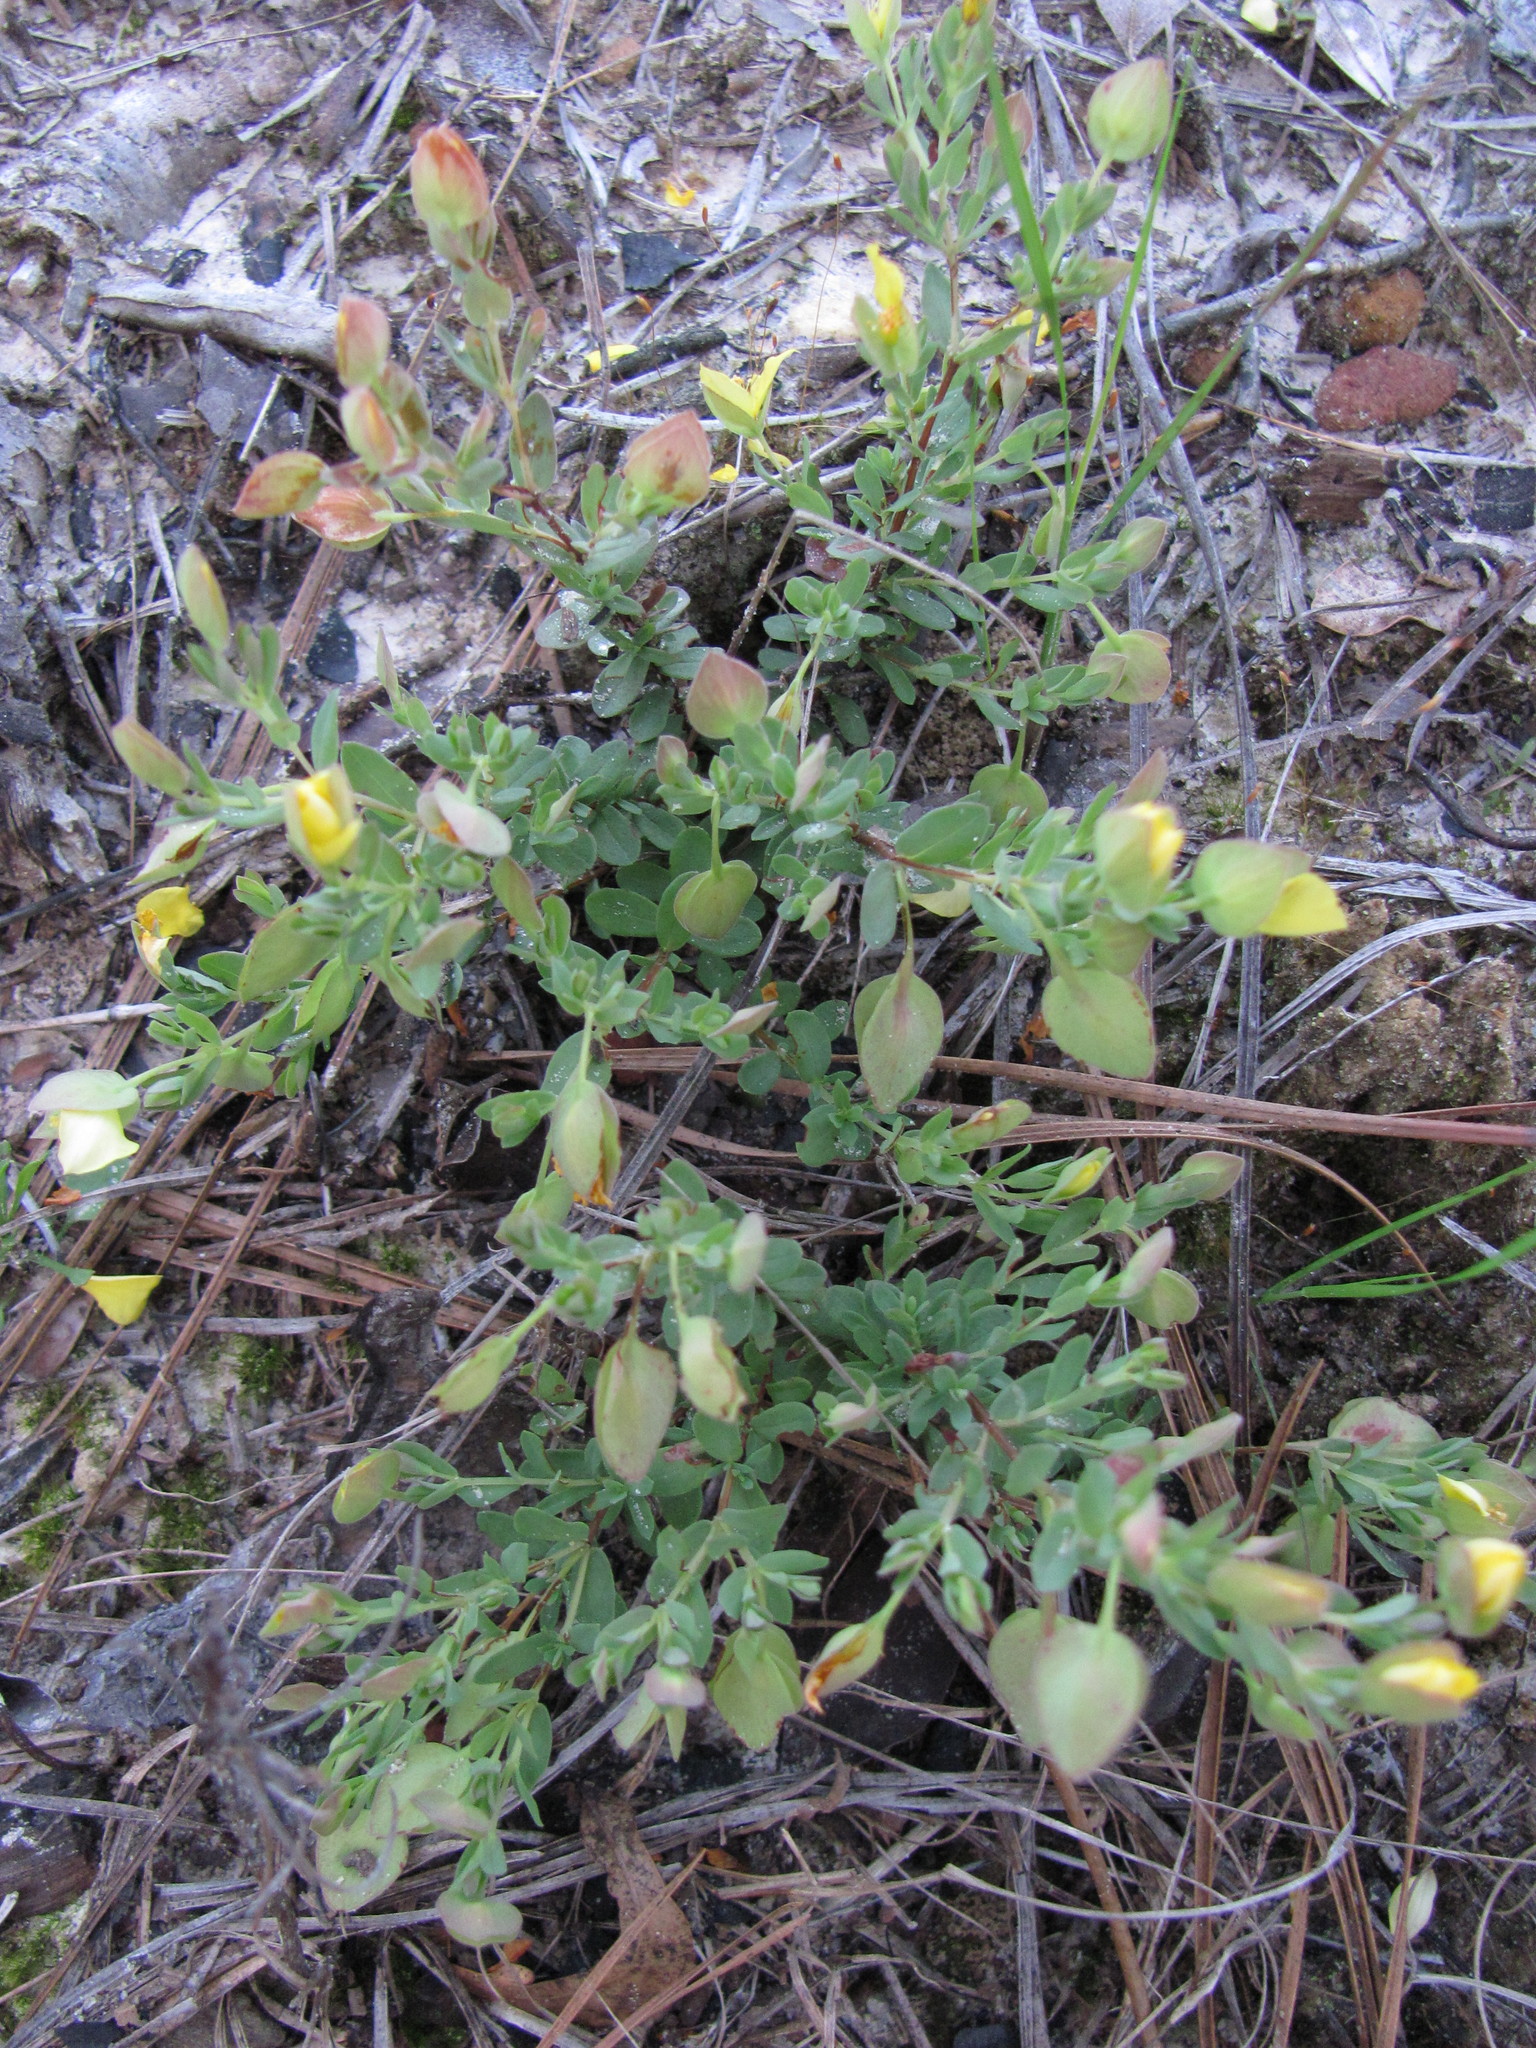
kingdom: Plantae
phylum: Tracheophyta
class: Magnoliopsida
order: Malpighiales
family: Hypericaceae
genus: Hypericum
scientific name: Hypericum suffruticosum
